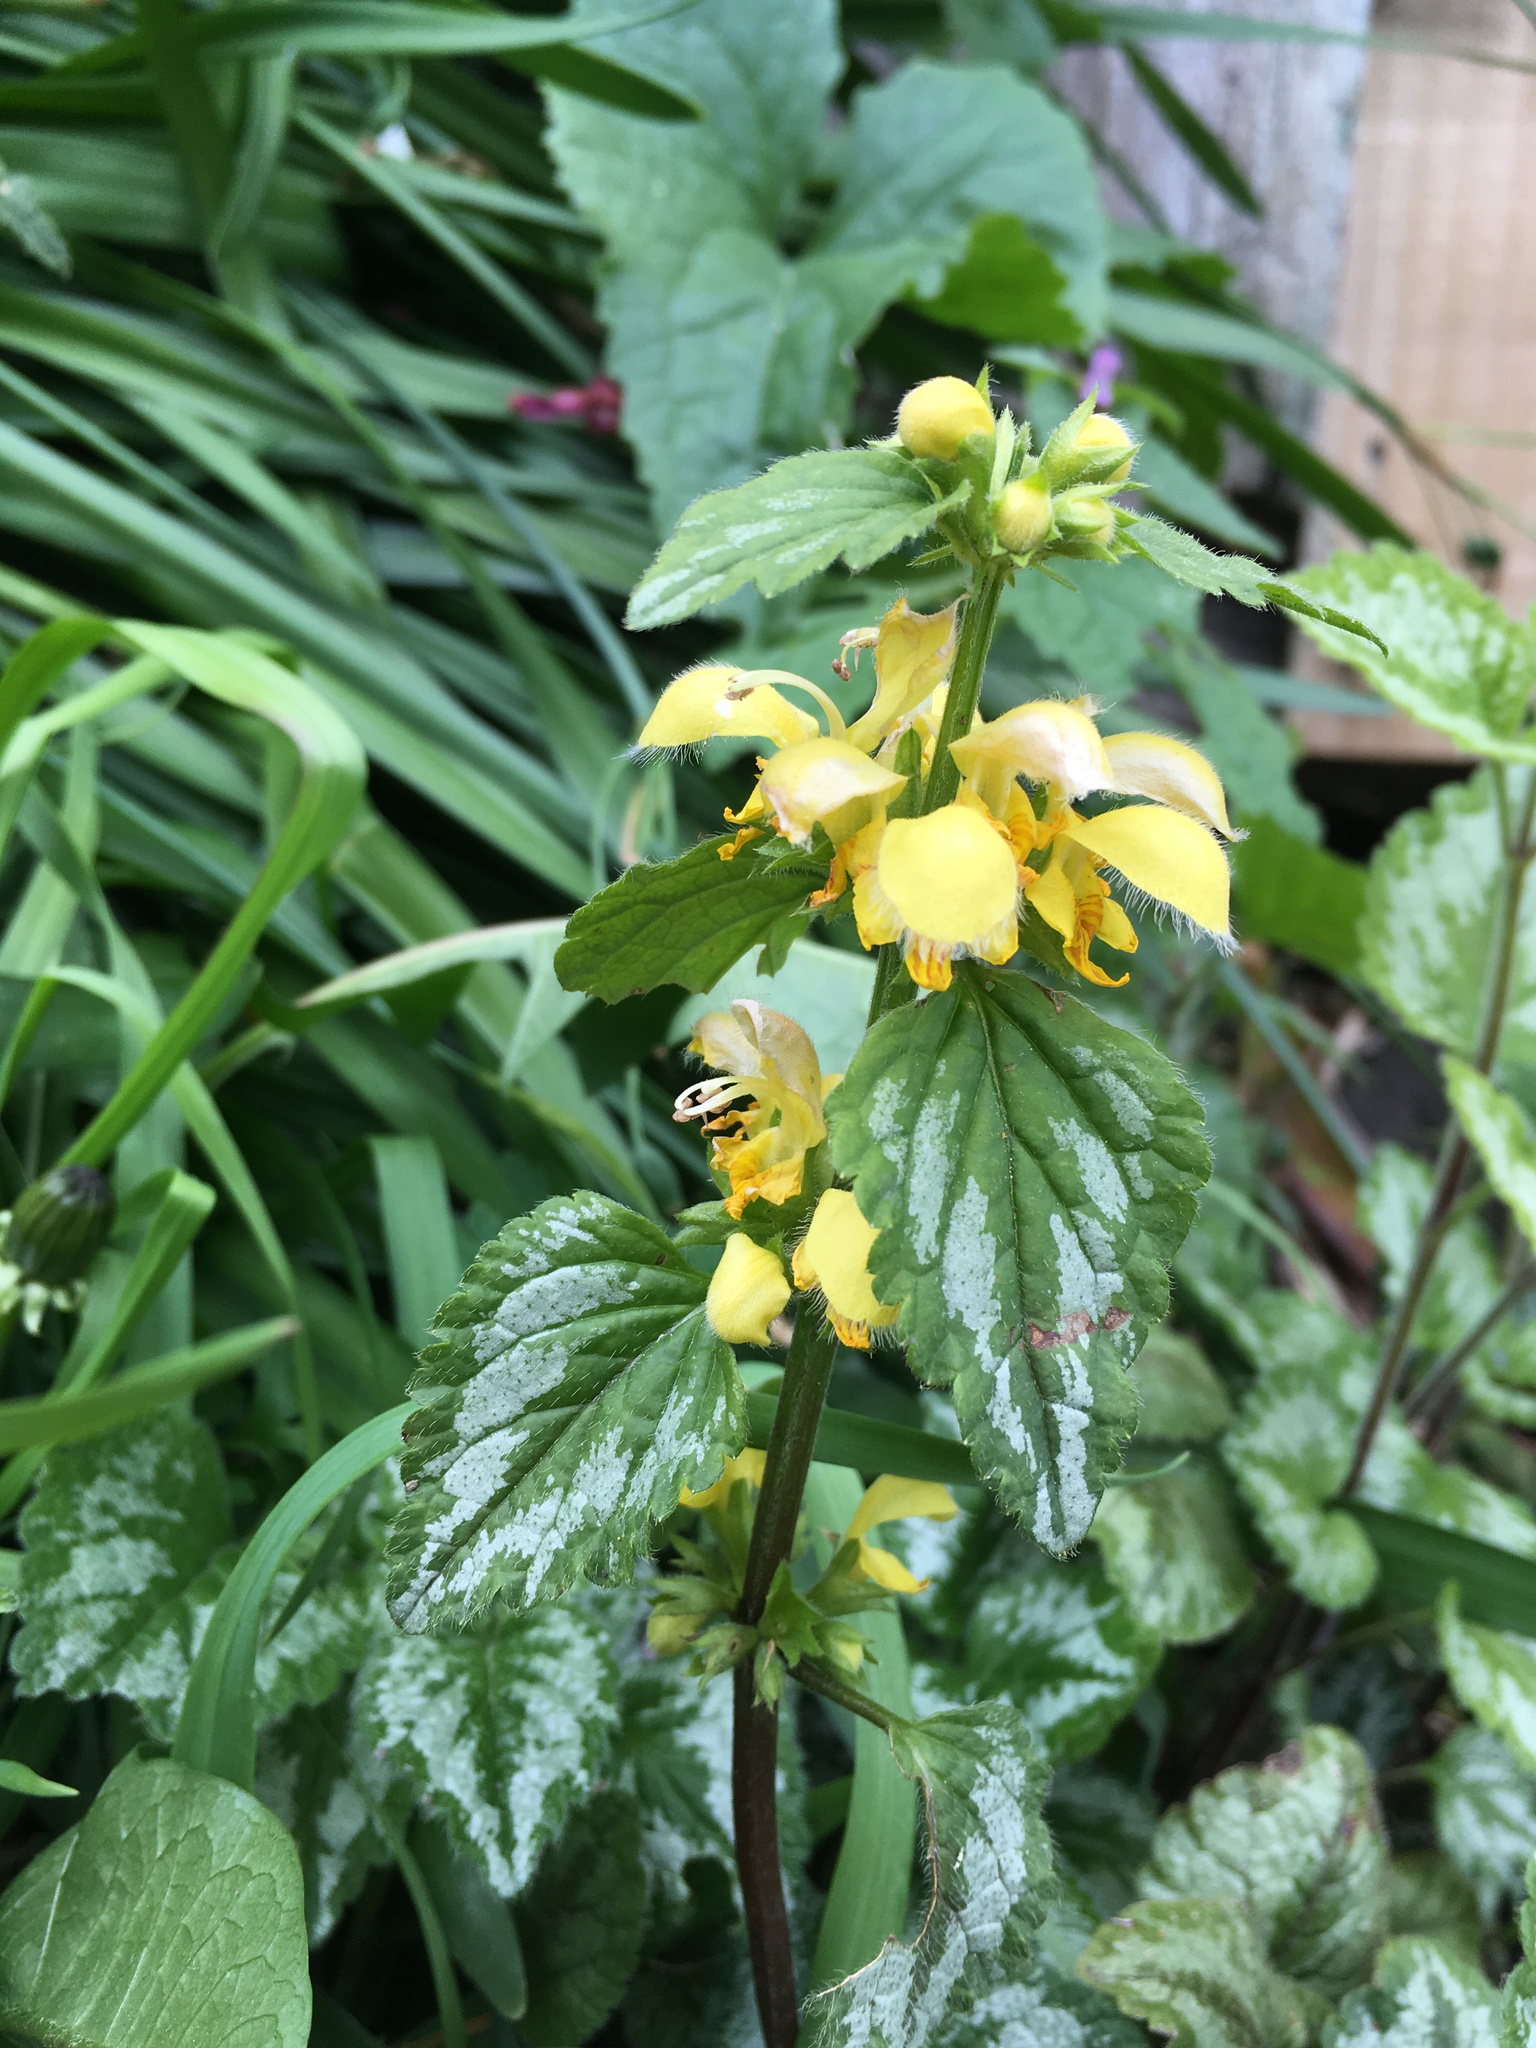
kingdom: Plantae
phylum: Tracheophyta
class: Magnoliopsida
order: Lamiales
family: Lamiaceae
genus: Lamium
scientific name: Lamium galeobdolon
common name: Yellow archangel
